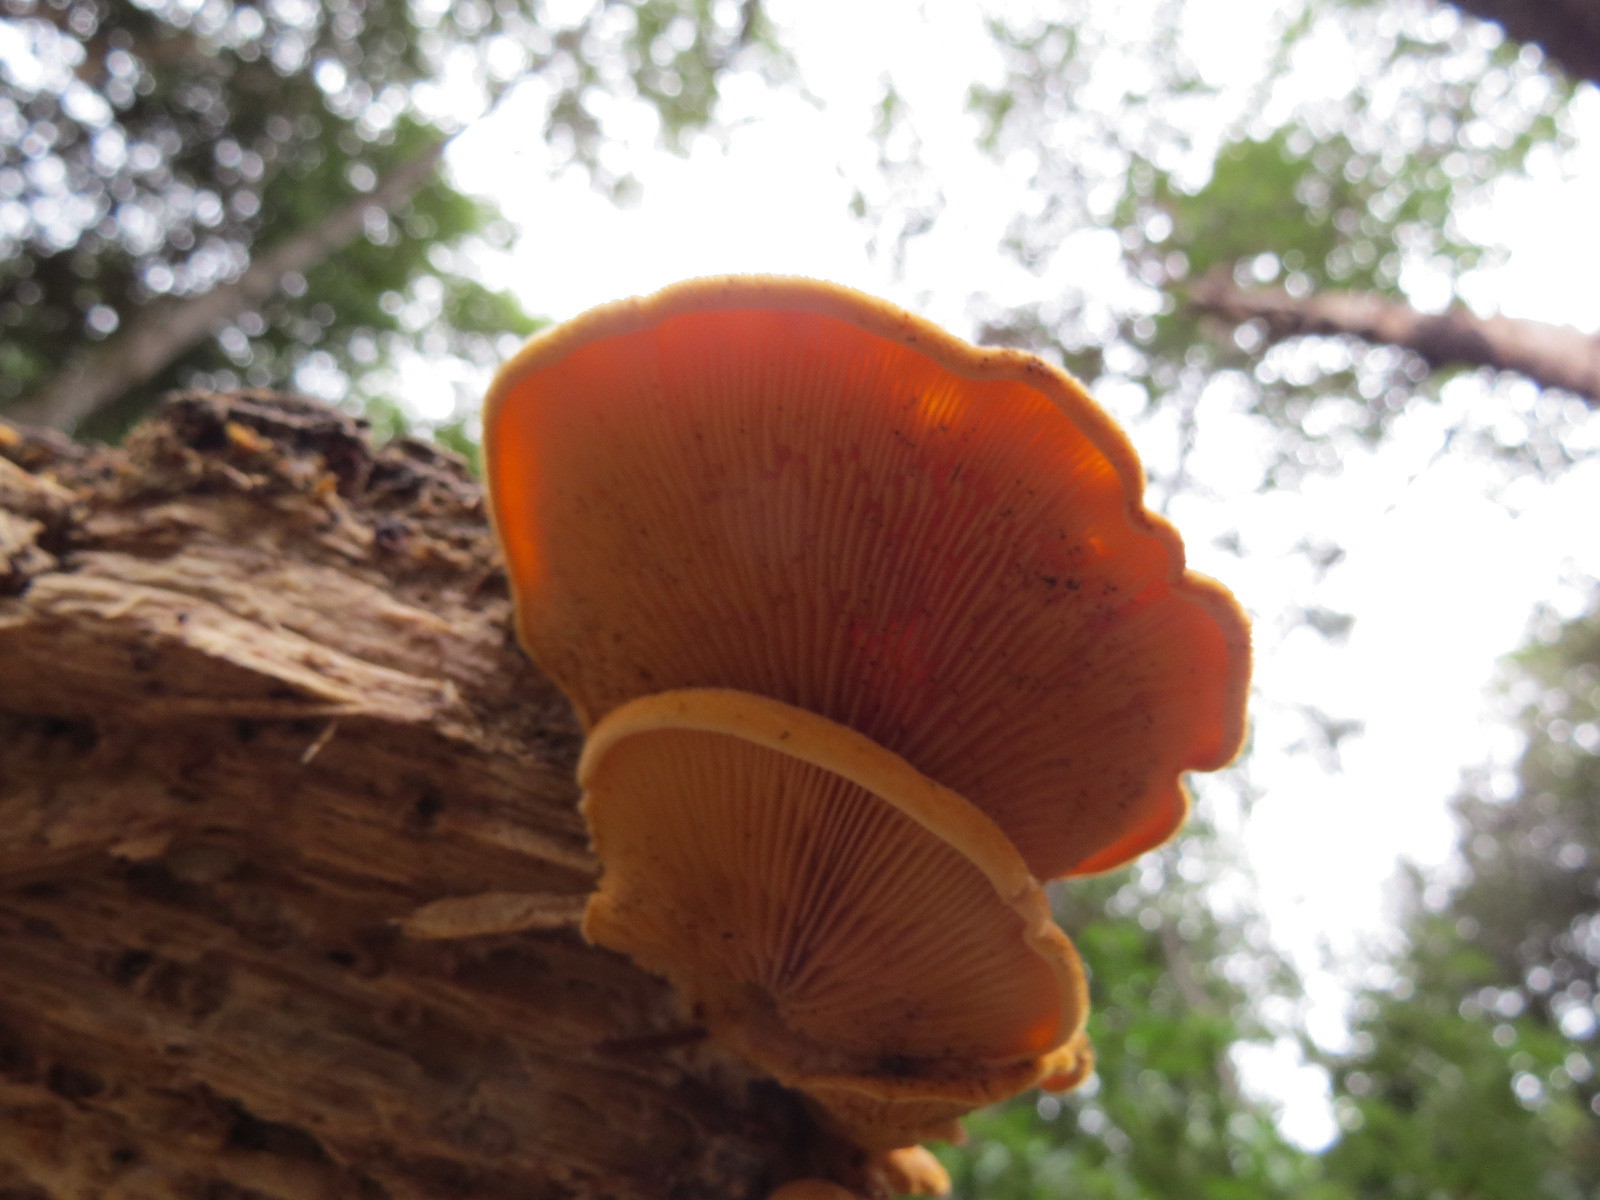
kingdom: Fungi
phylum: Basidiomycota
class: Agaricomycetes
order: Agaricales
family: Phyllotopsidaceae
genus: Phyllotopsis
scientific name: Phyllotopsis nidulans
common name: Orange mock oyster
